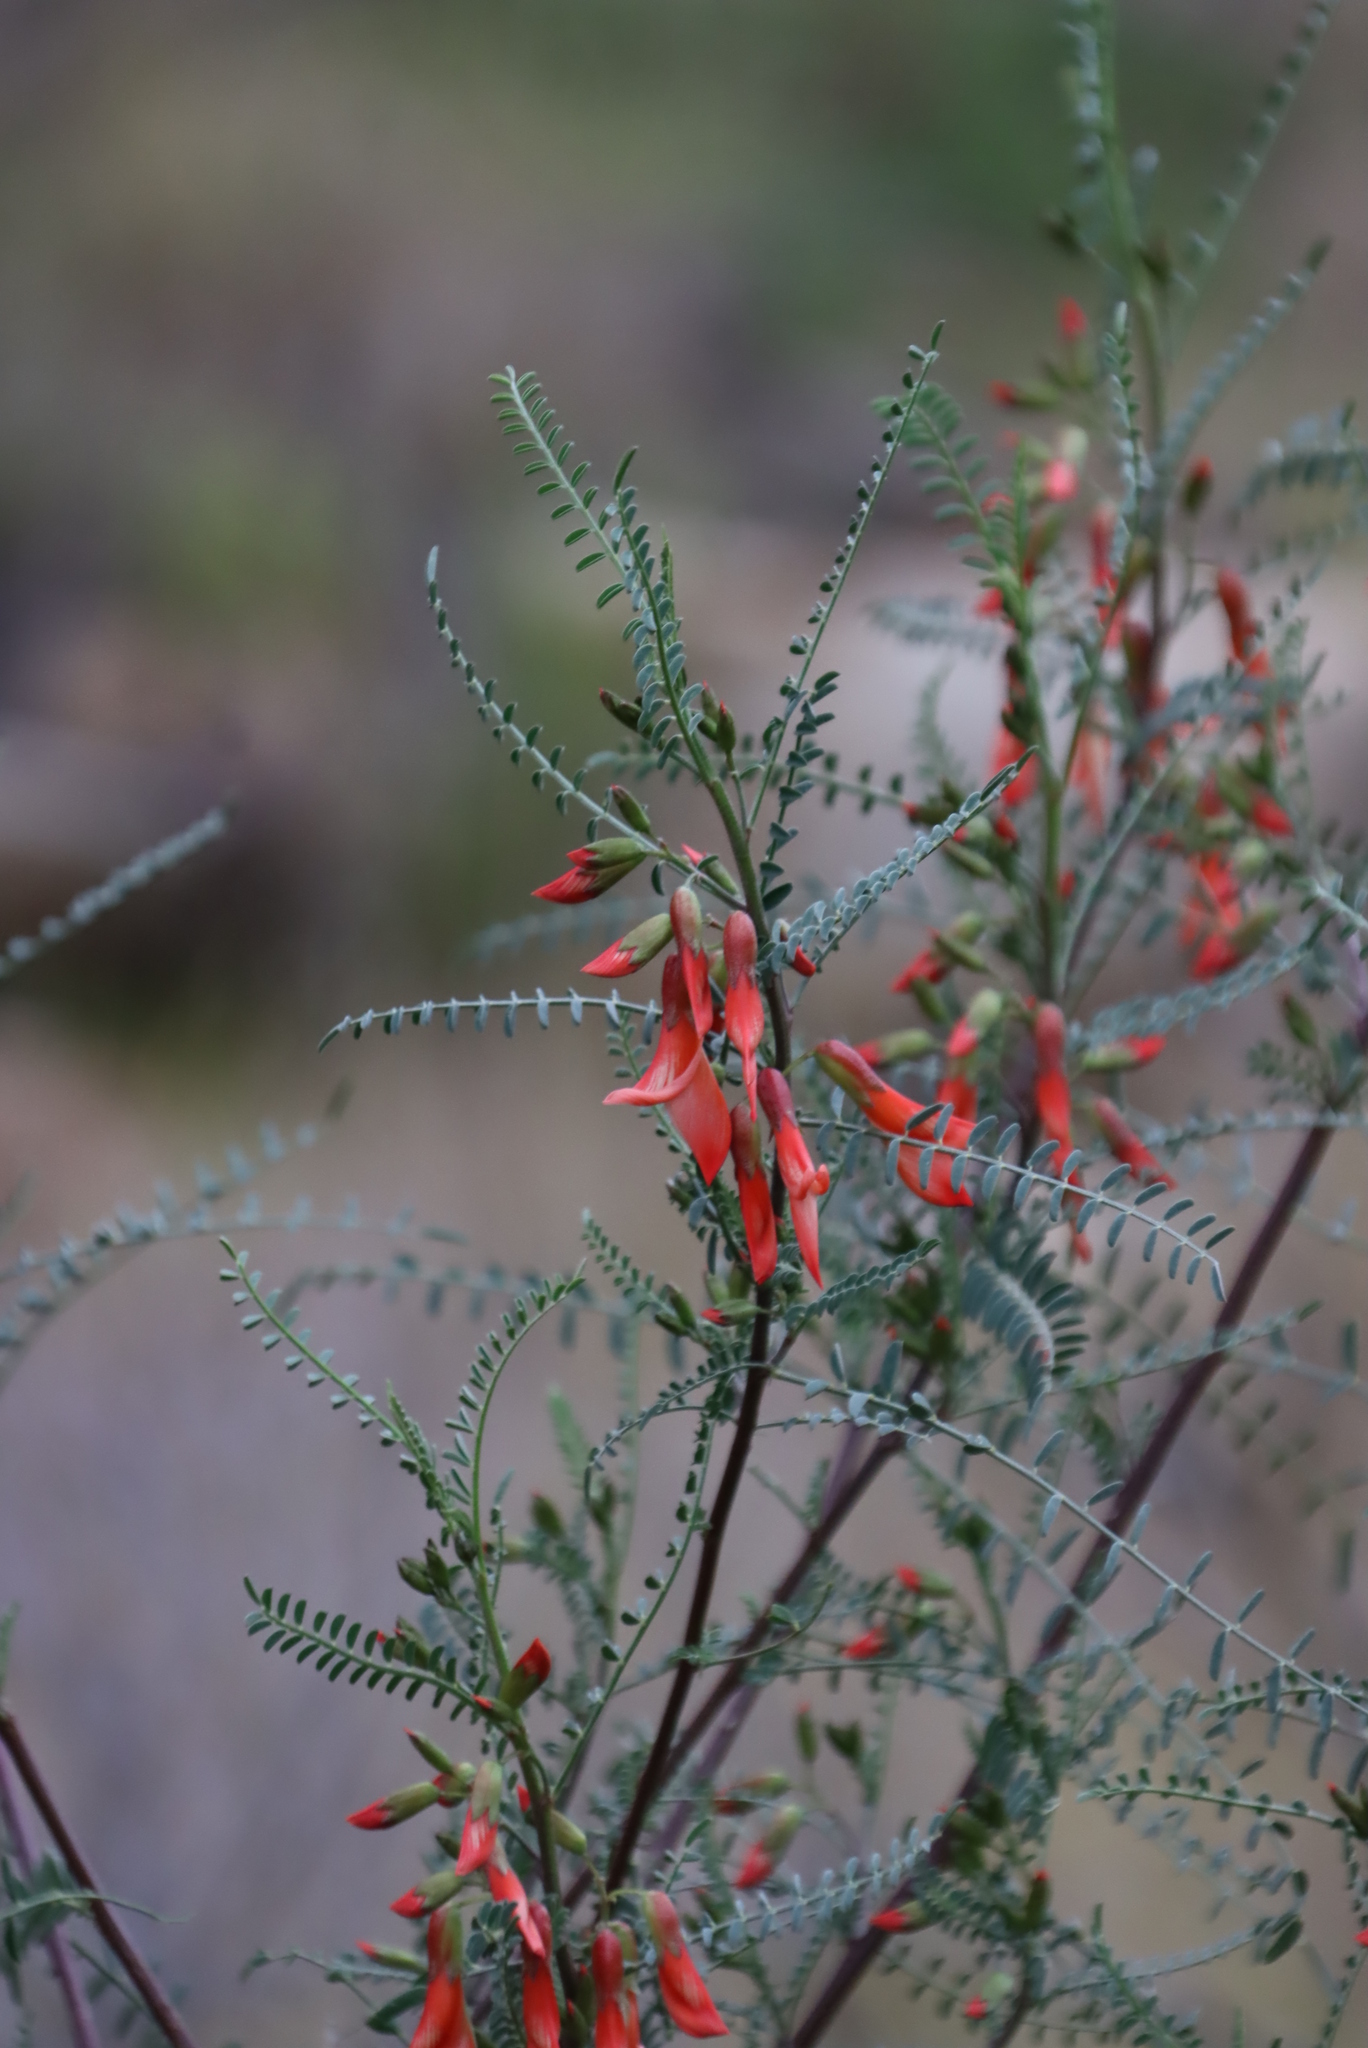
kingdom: Plantae
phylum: Tracheophyta
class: Magnoliopsida
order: Fabales
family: Fabaceae
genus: Lessertia
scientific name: Lessertia frutescens
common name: Balloon-pea
